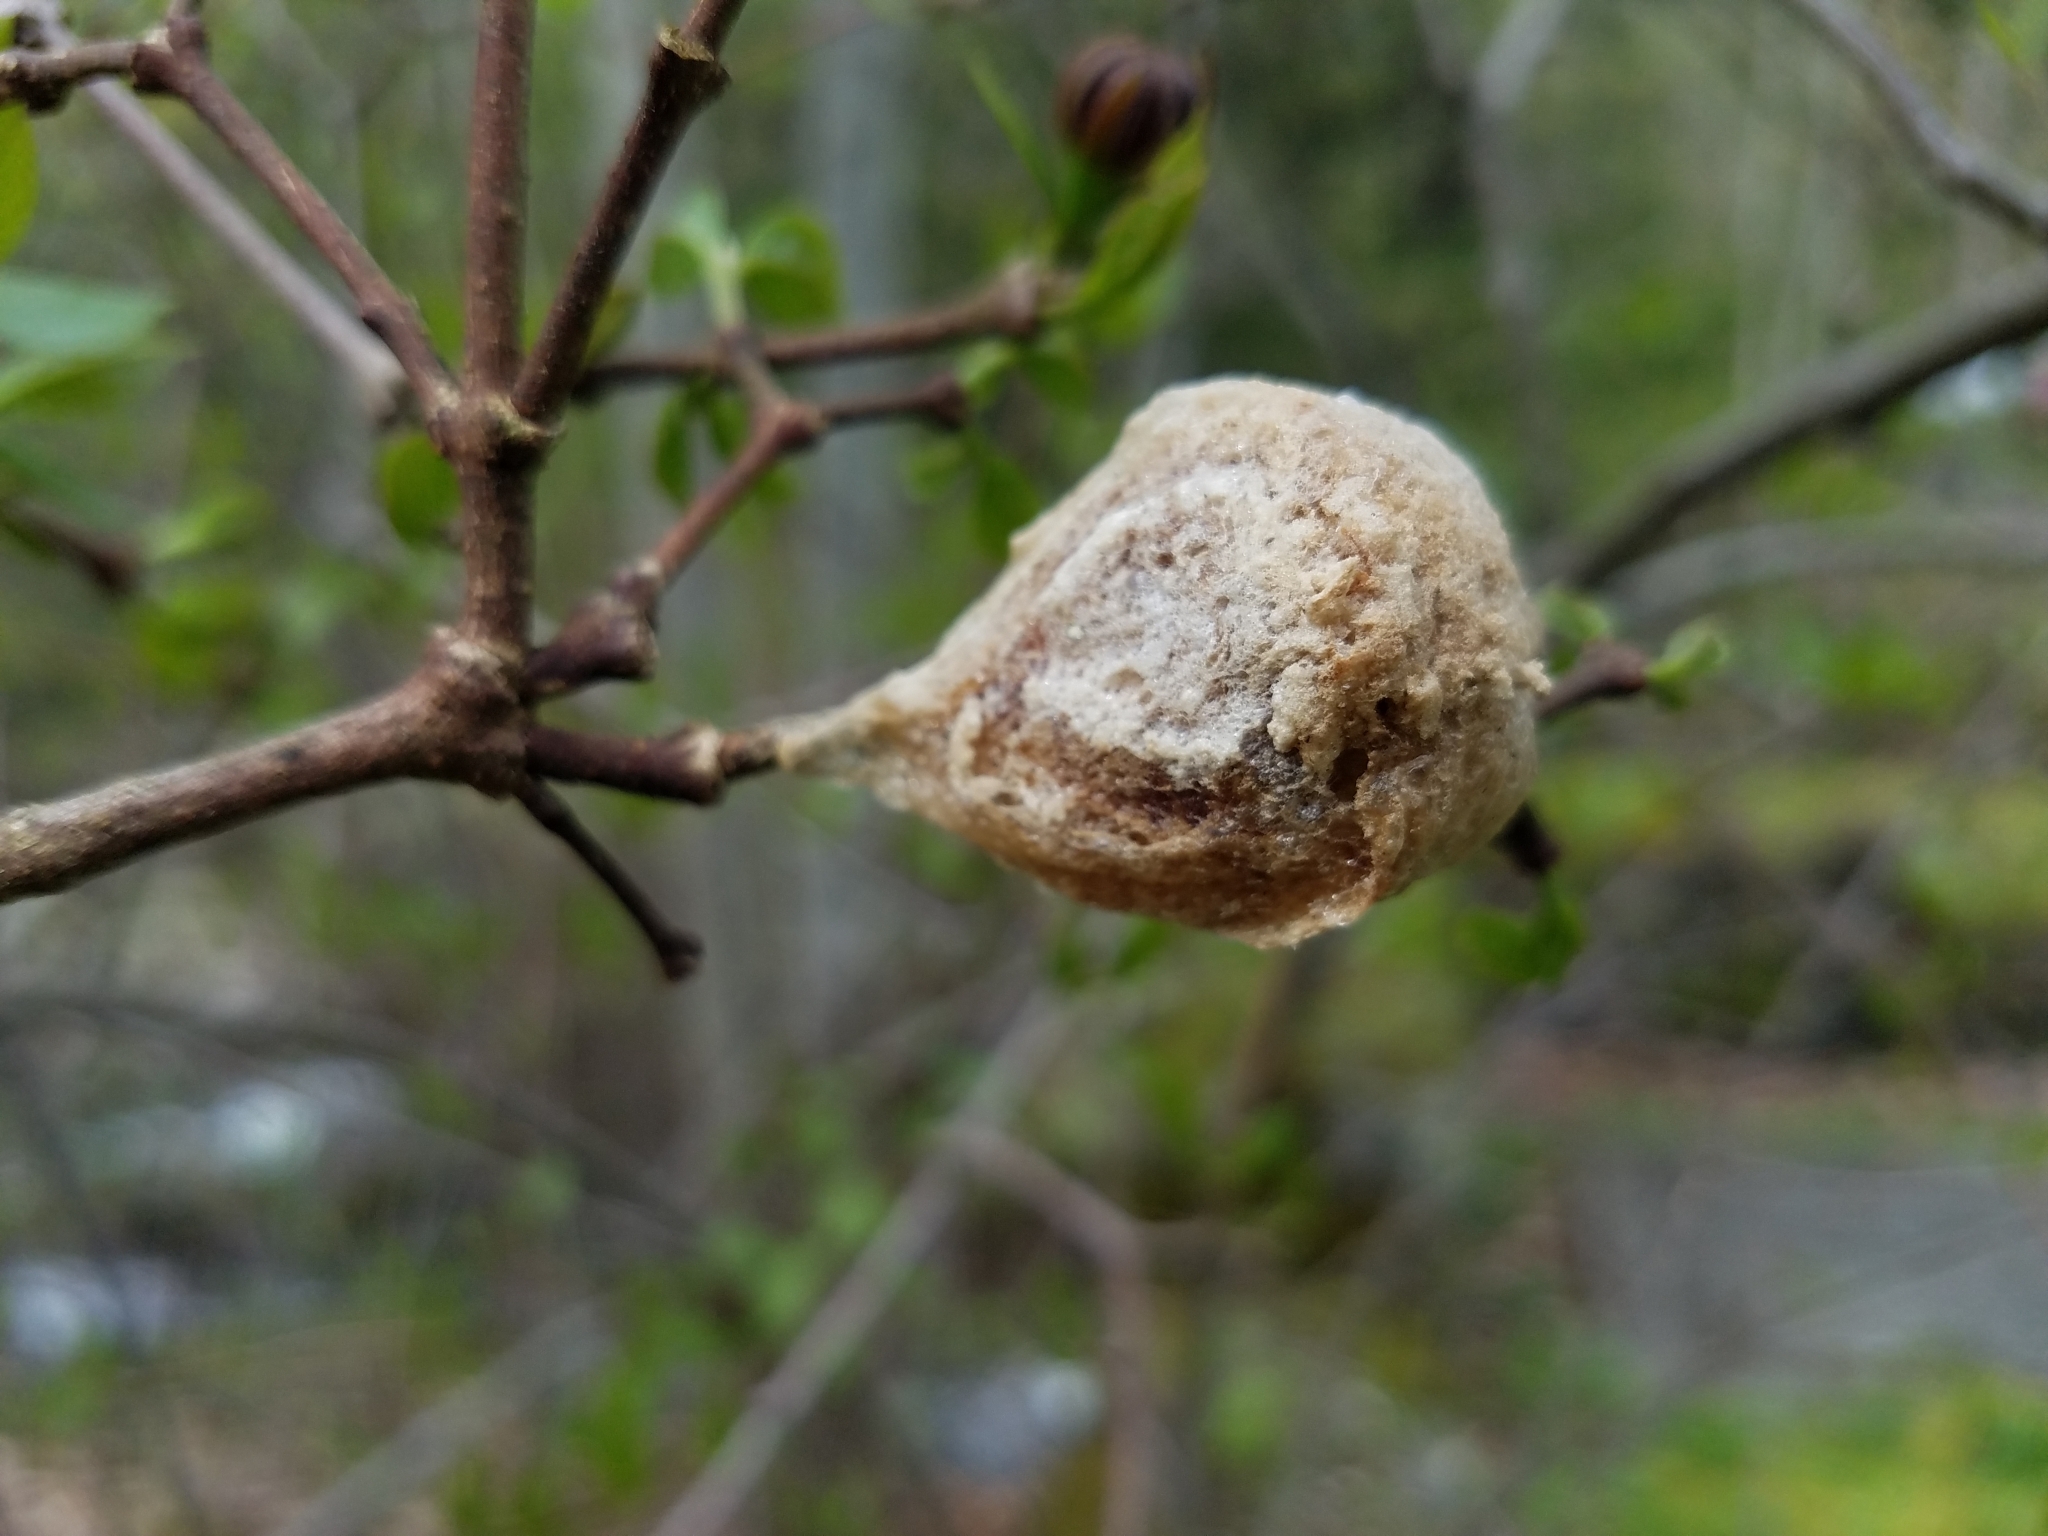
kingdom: Animalia
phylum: Arthropoda
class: Insecta
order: Mantodea
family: Mantidae
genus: Tenodera
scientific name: Tenodera sinensis
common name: Chinese mantis
